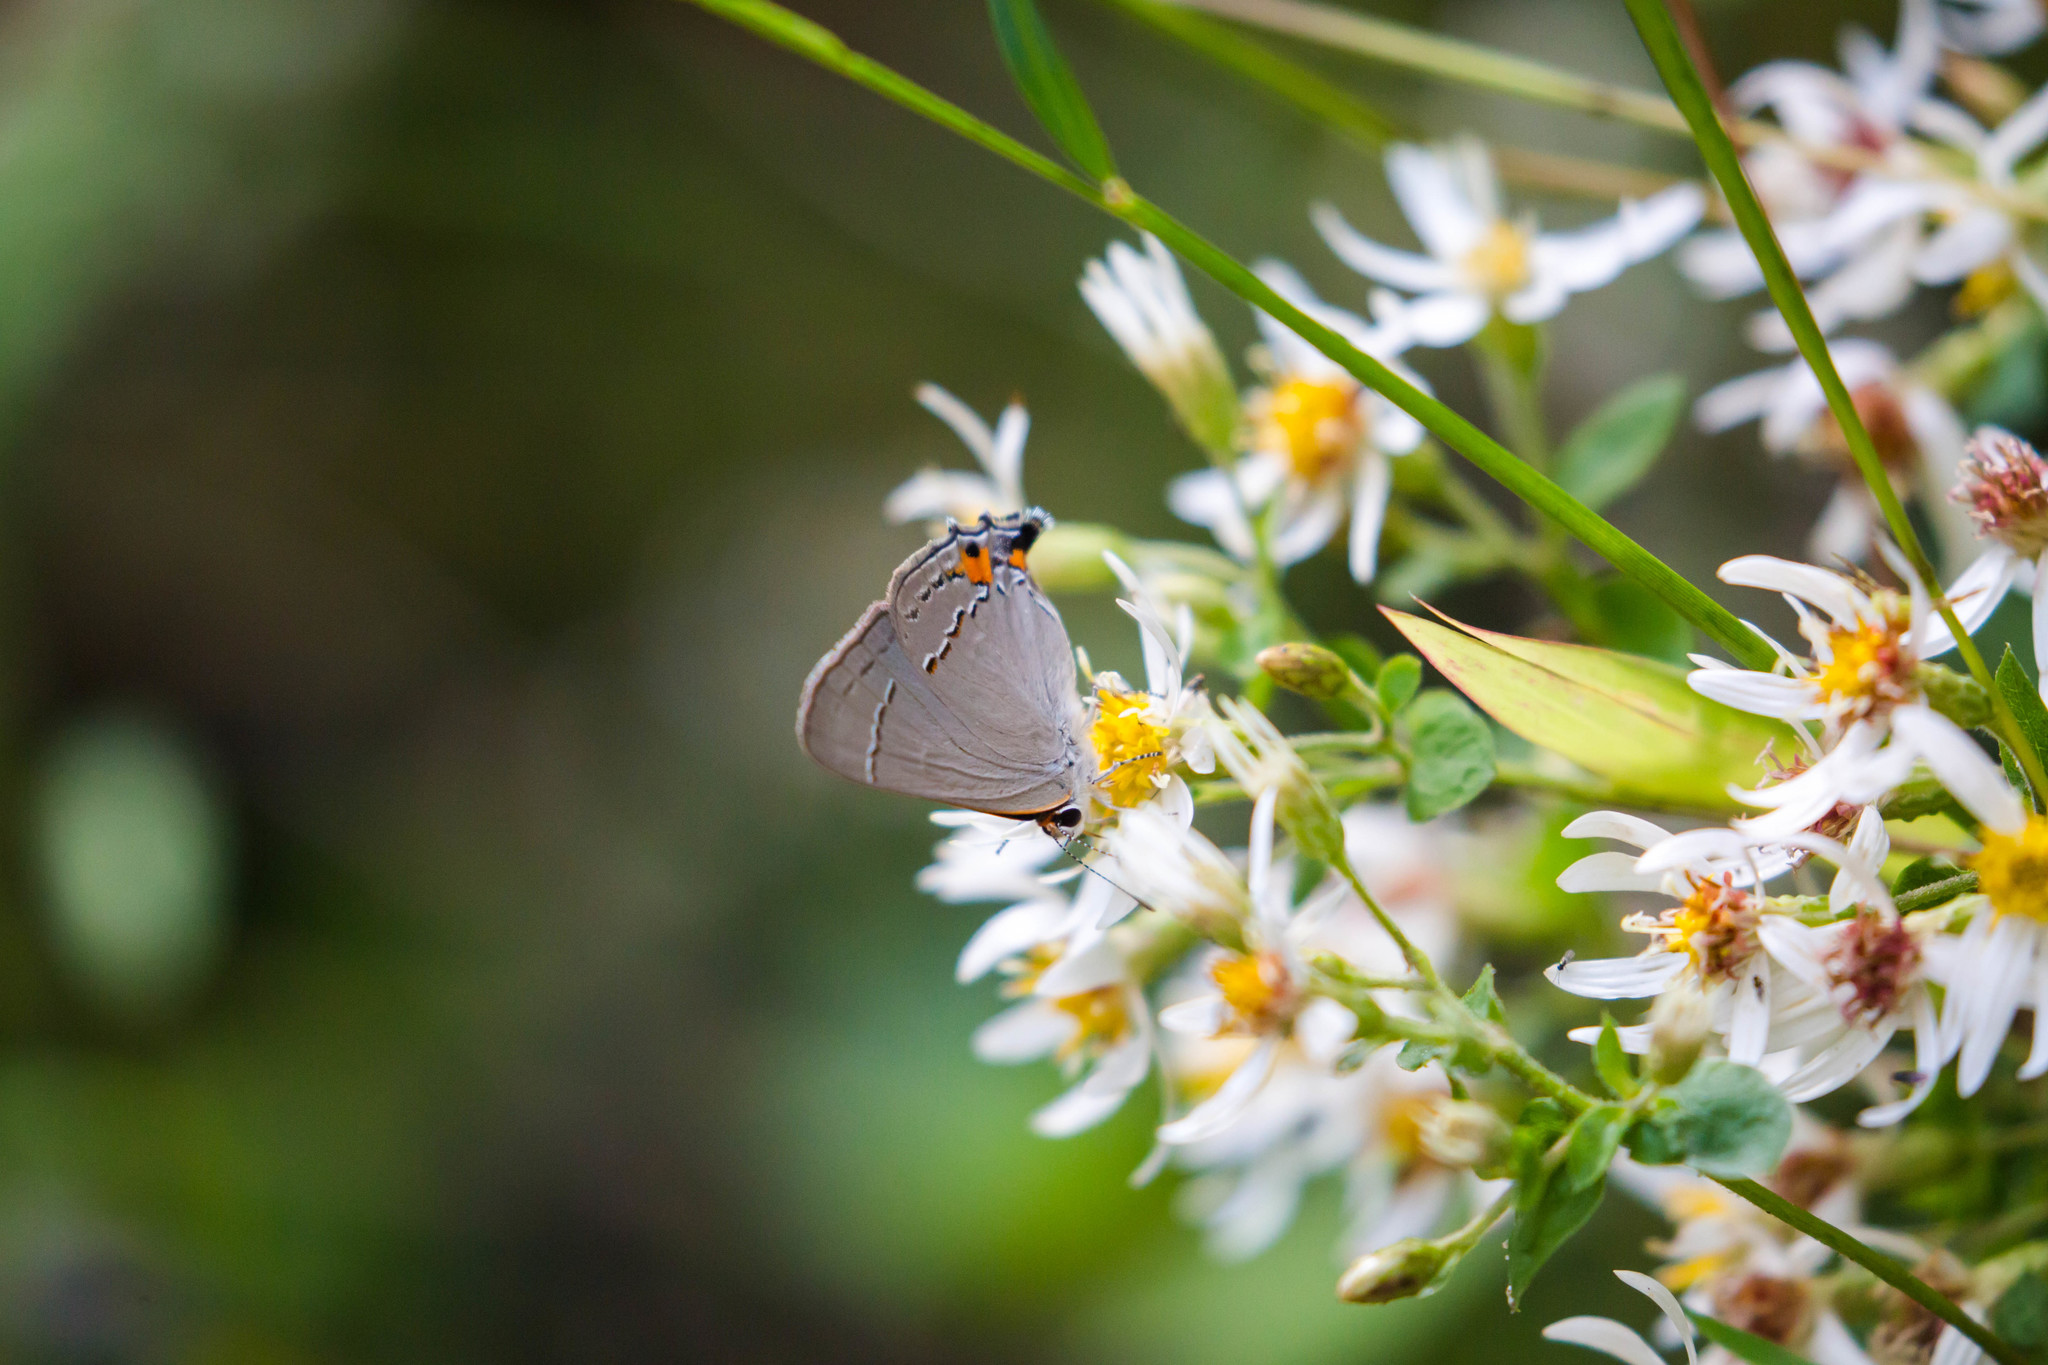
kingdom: Animalia
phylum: Arthropoda
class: Insecta
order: Lepidoptera
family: Lycaenidae
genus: Strymon
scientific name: Strymon melinus
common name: Gray hairstreak
